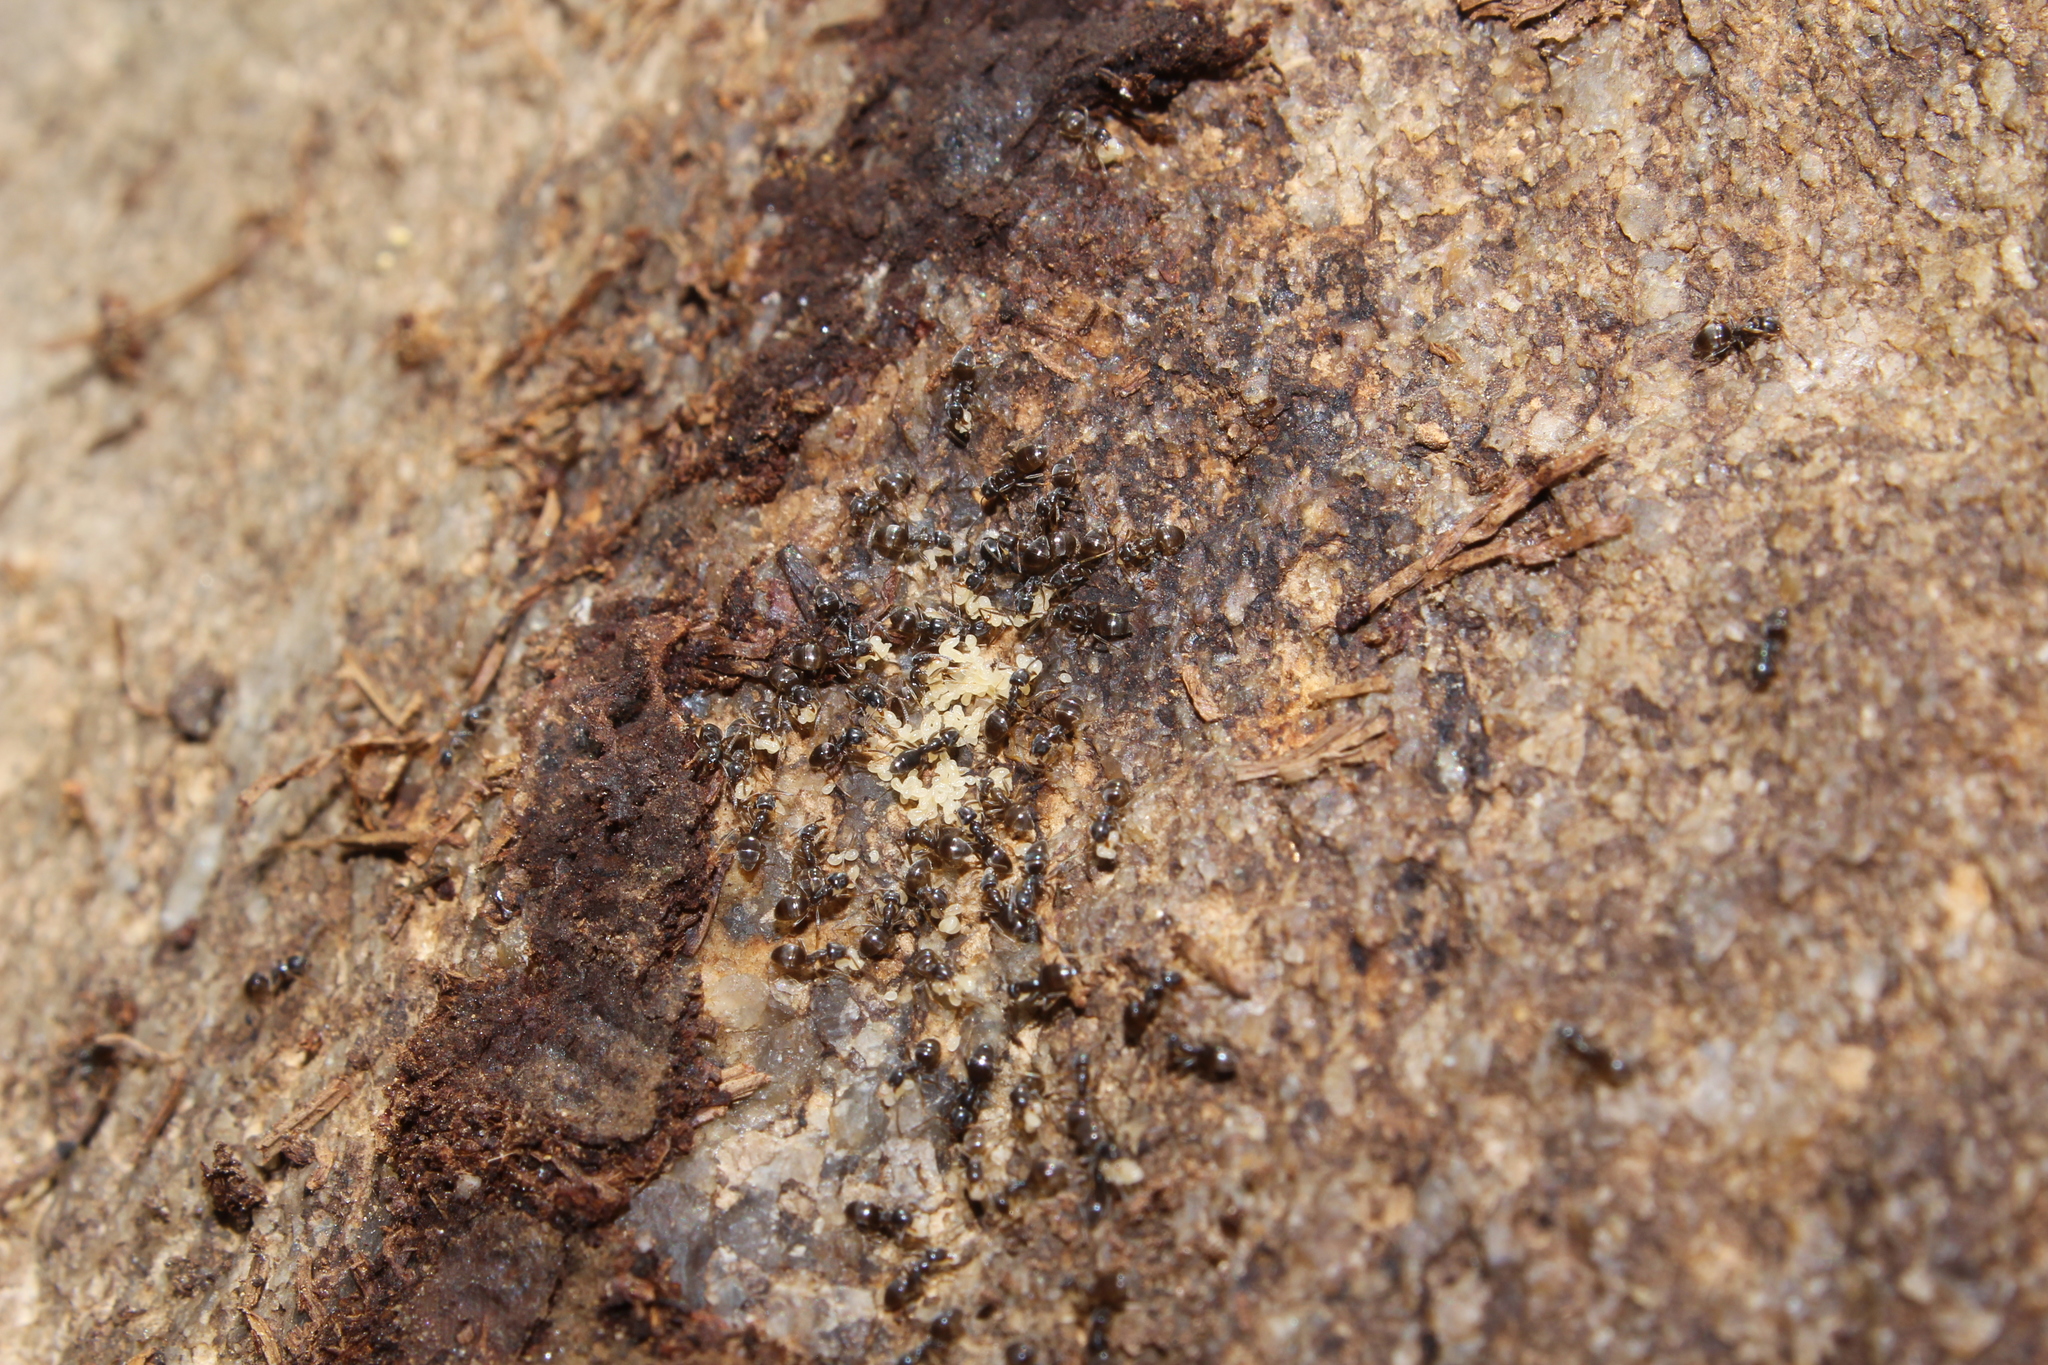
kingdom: Animalia
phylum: Arthropoda
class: Insecta
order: Hymenoptera
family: Formicidae
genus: Tapinoma
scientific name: Tapinoma sessile
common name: Odorous house ant
